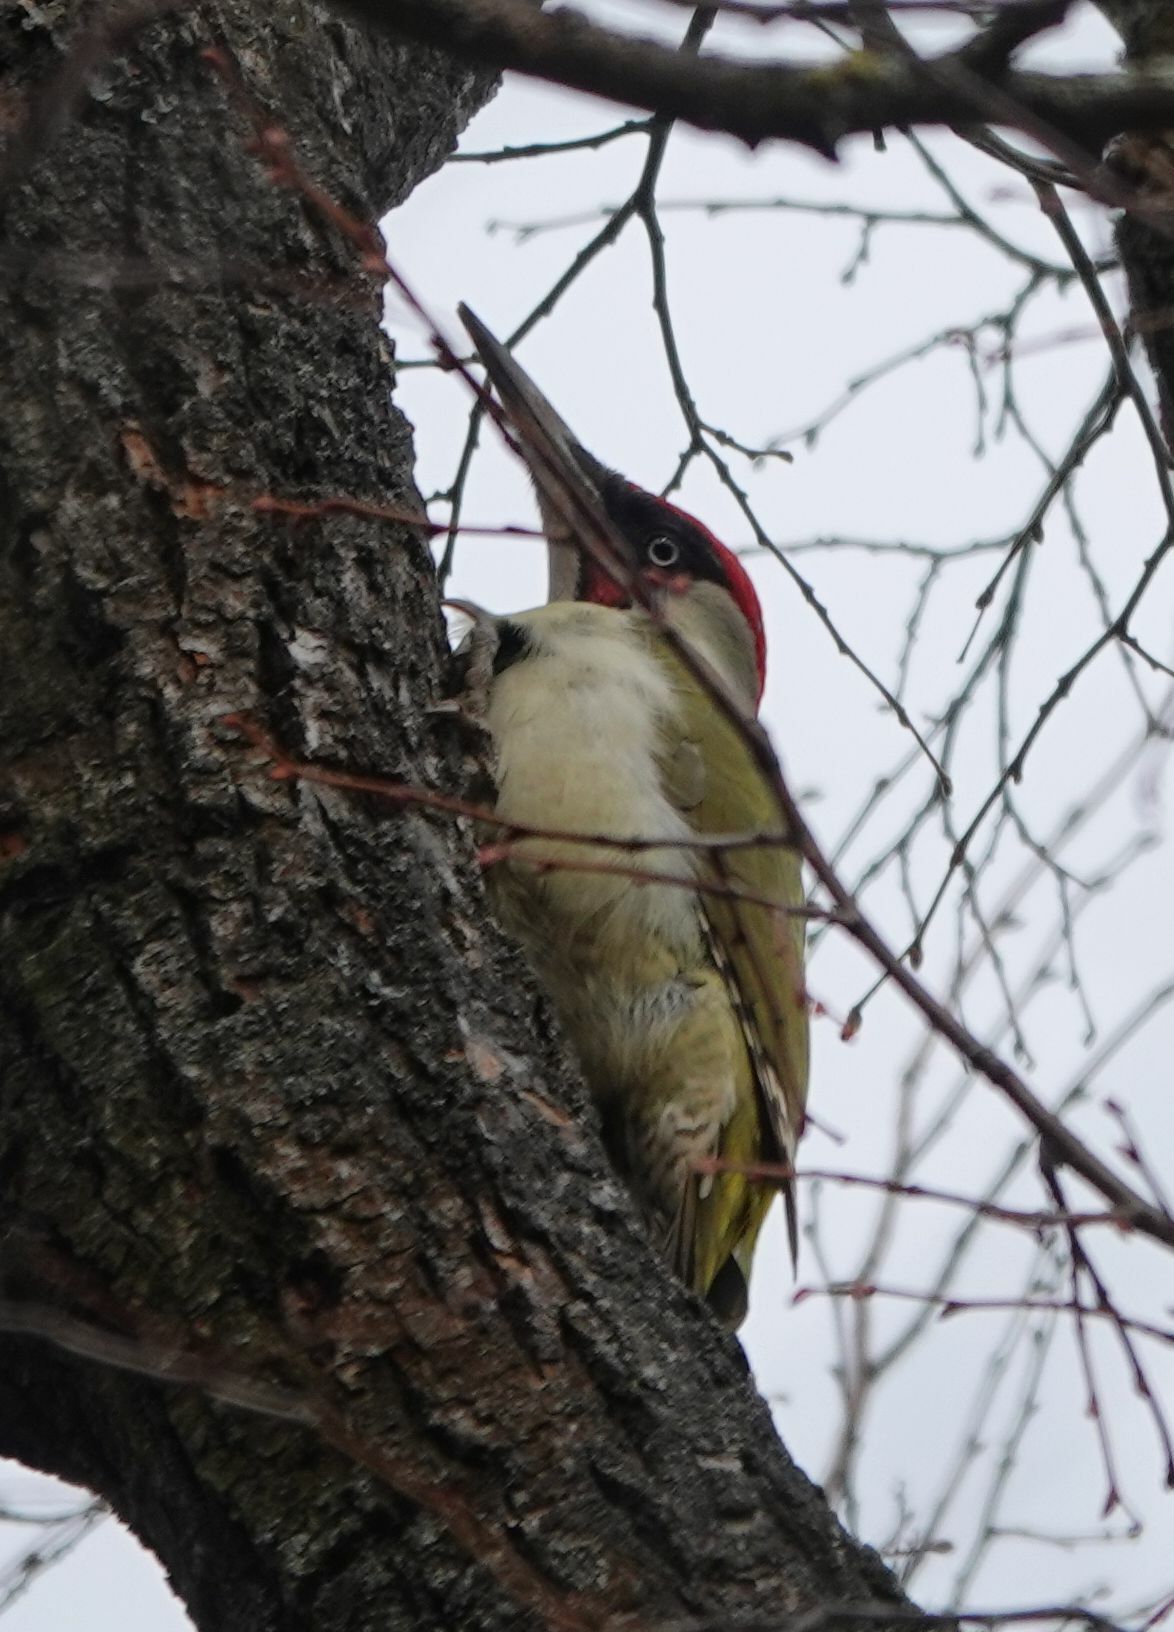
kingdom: Animalia
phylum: Chordata
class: Aves
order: Piciformes
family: Picidae
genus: Picus
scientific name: Picus viridis
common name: European green woodpecker
